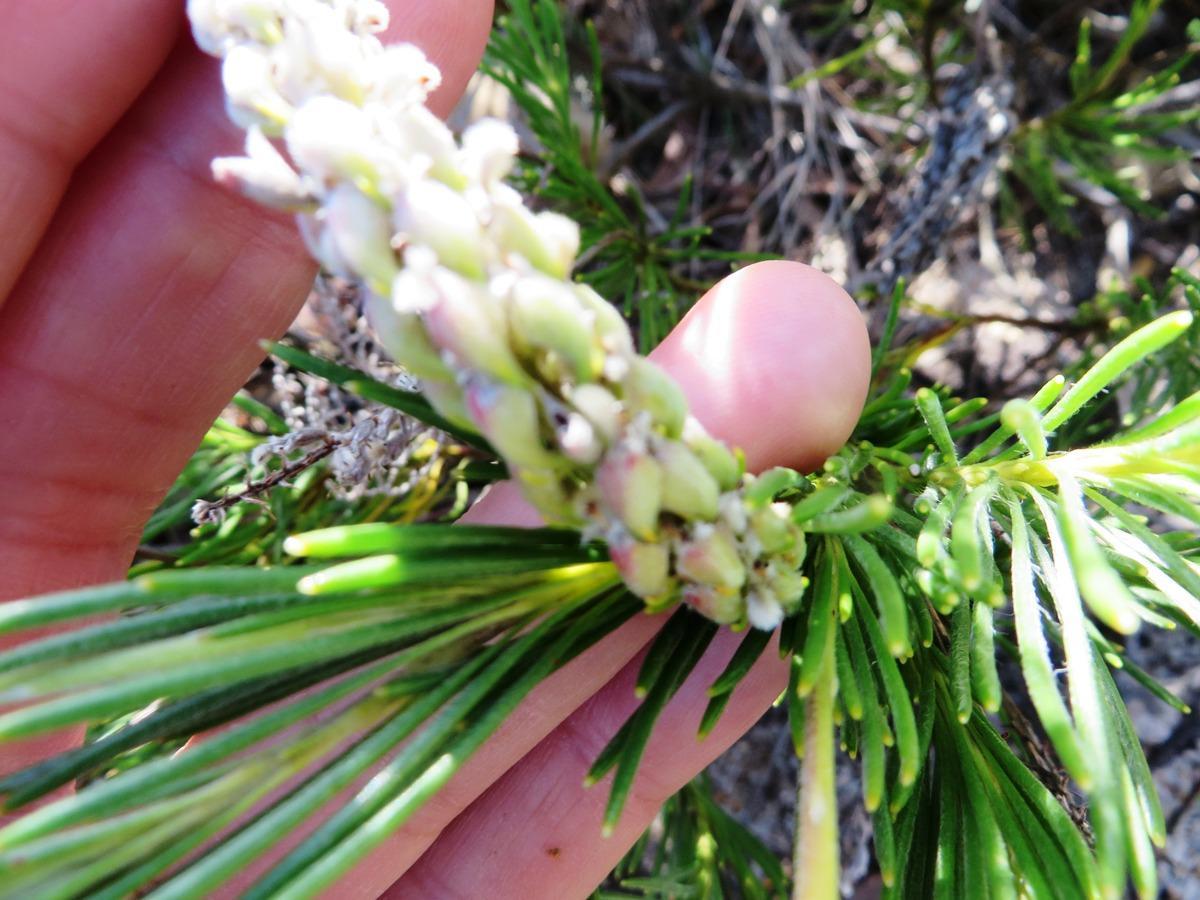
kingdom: Plantae
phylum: Tracheophyta
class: Magnoliopsida
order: Proteales
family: Proteaceae
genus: Spatalla
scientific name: Spatalla curvifolia
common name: White-stalked spoon
